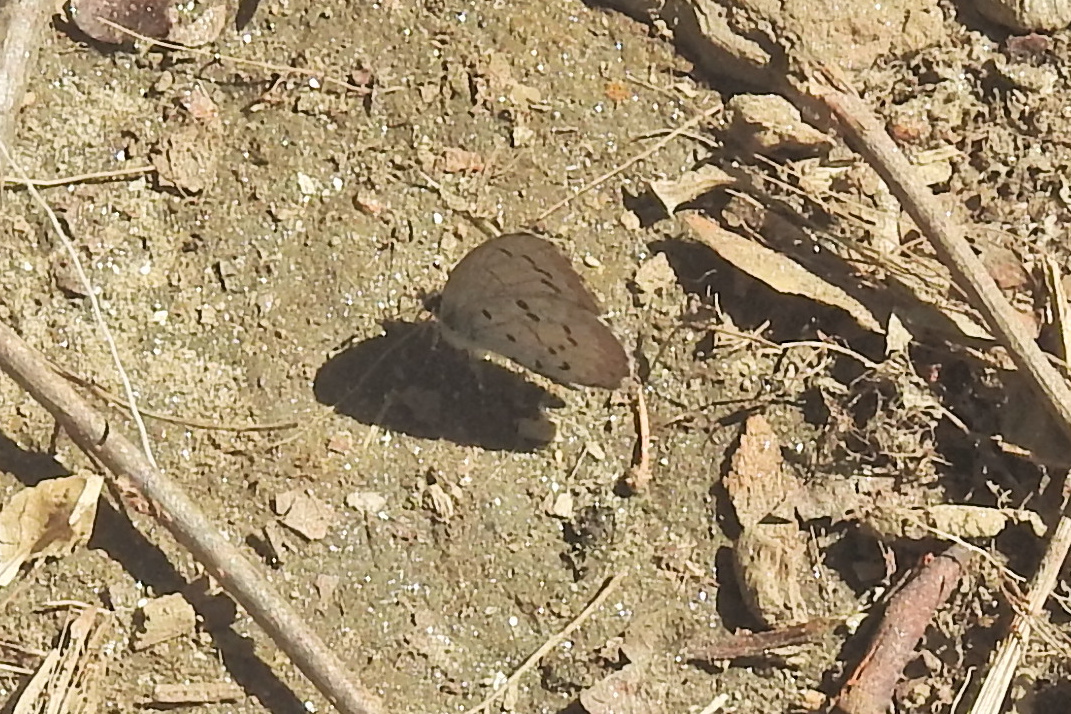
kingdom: Animalia
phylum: Arthropoda
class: Insecta
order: Lepidoptera
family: Lycaenidae
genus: Celastrina
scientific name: Celastrina ladon
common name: Spring azure
